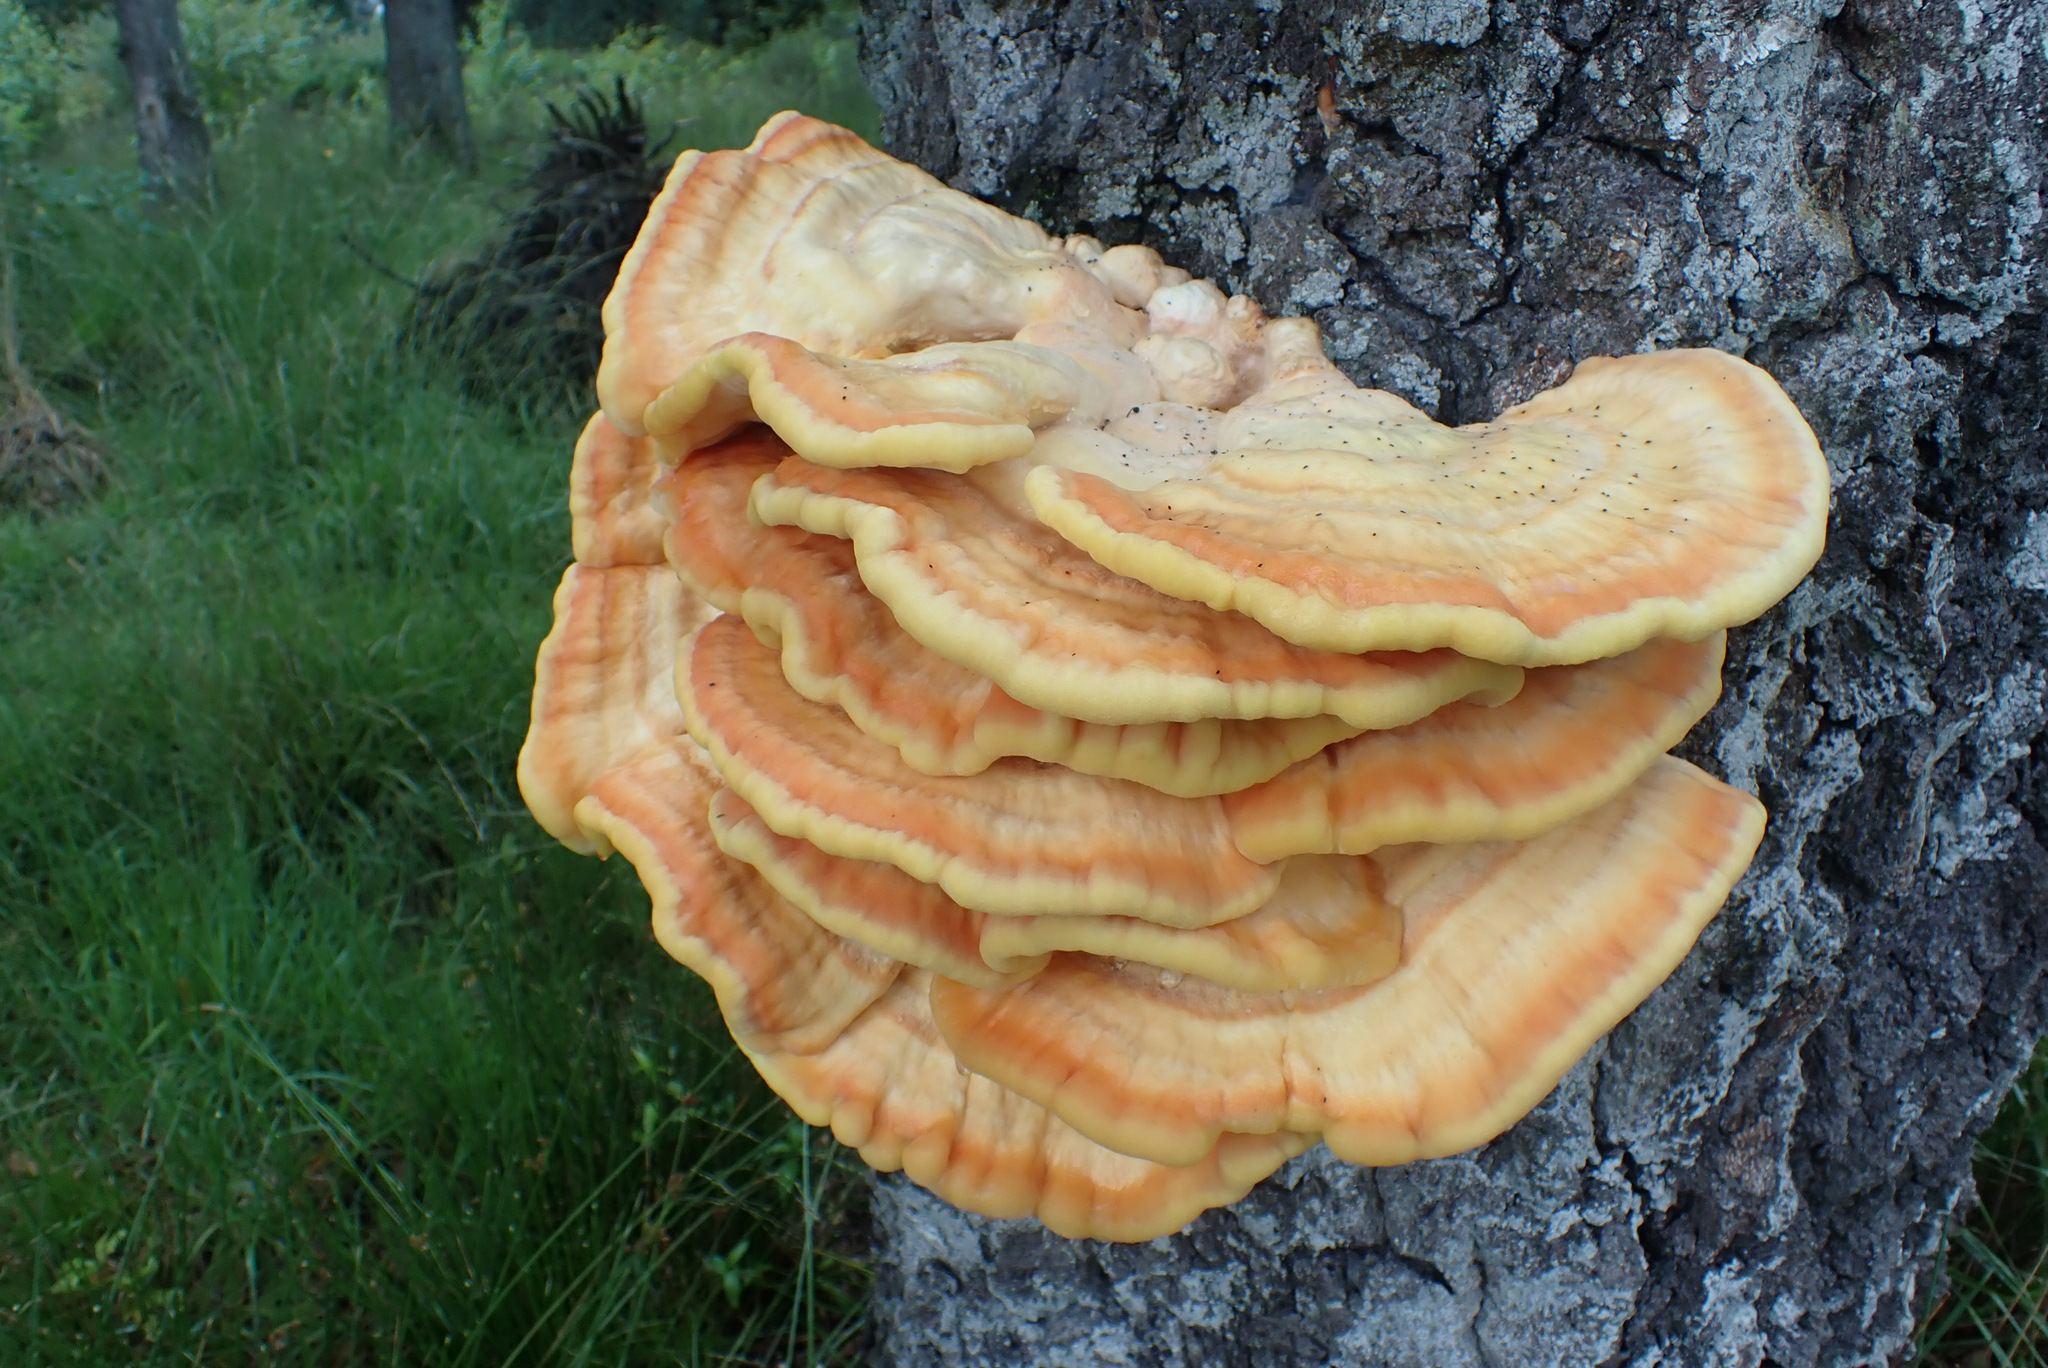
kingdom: Fungi
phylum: Basidiomycota
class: Agaricomycetes
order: Polyporales
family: Laetiporaceae
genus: Laetiporus
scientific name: Laetiporus sulphureus
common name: Chicken of the woods
